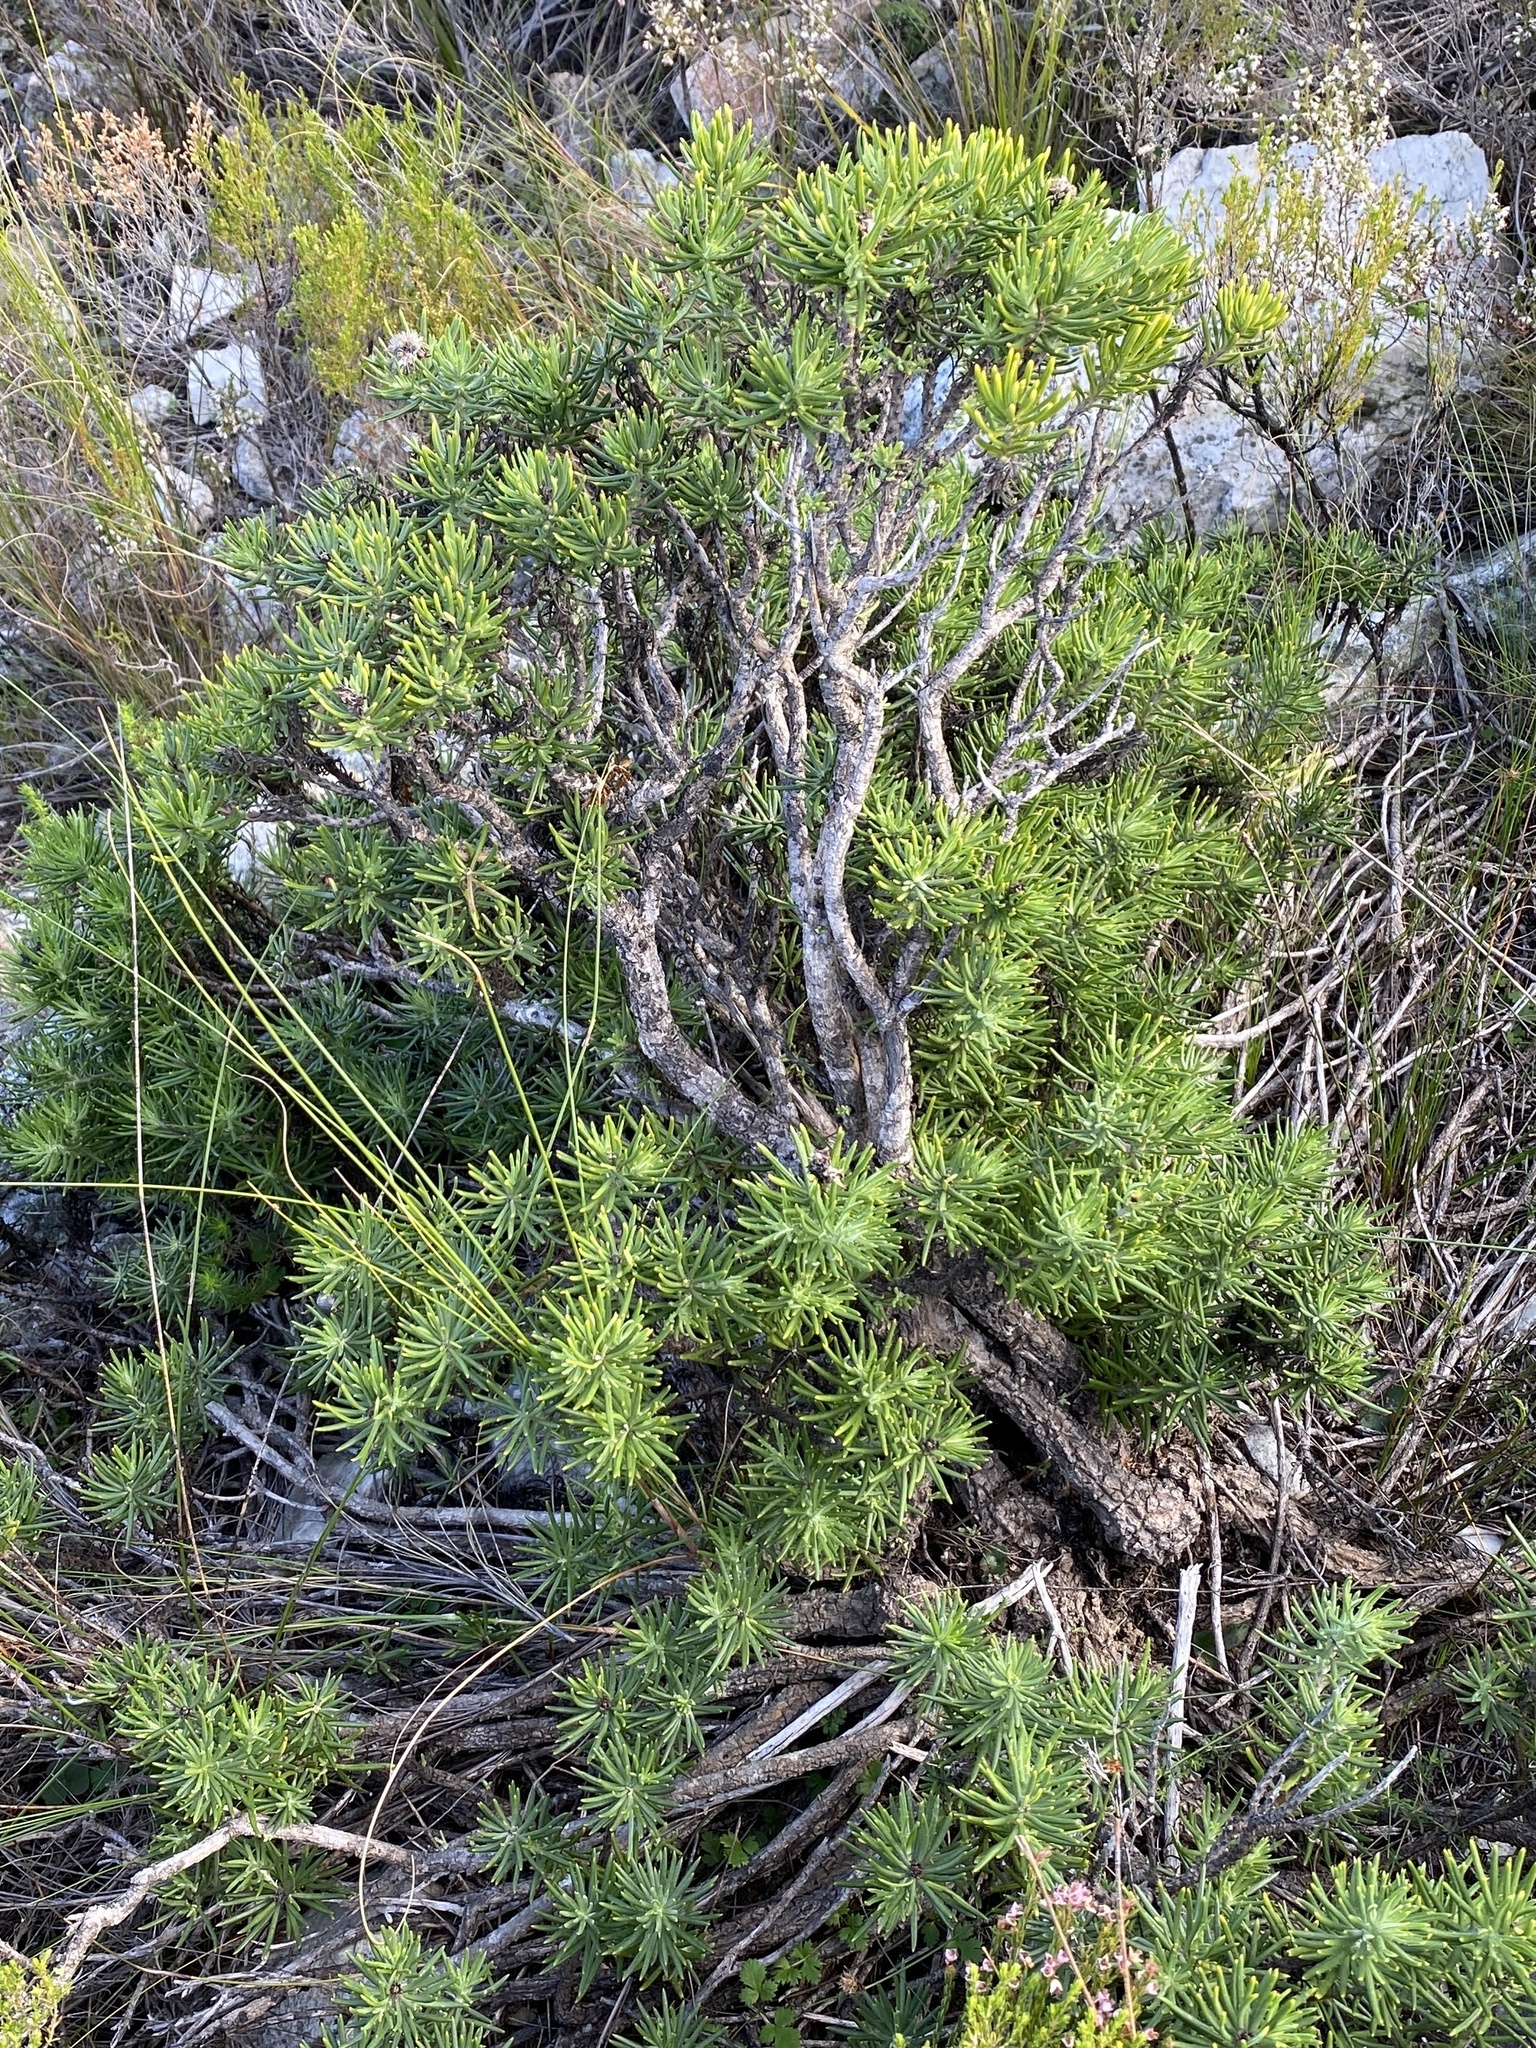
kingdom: Plantae
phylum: Tracheophyta
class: Magnoliopsida
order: Asterales
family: Asteraceae
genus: Heterolepis
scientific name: Heterolepis aliena
